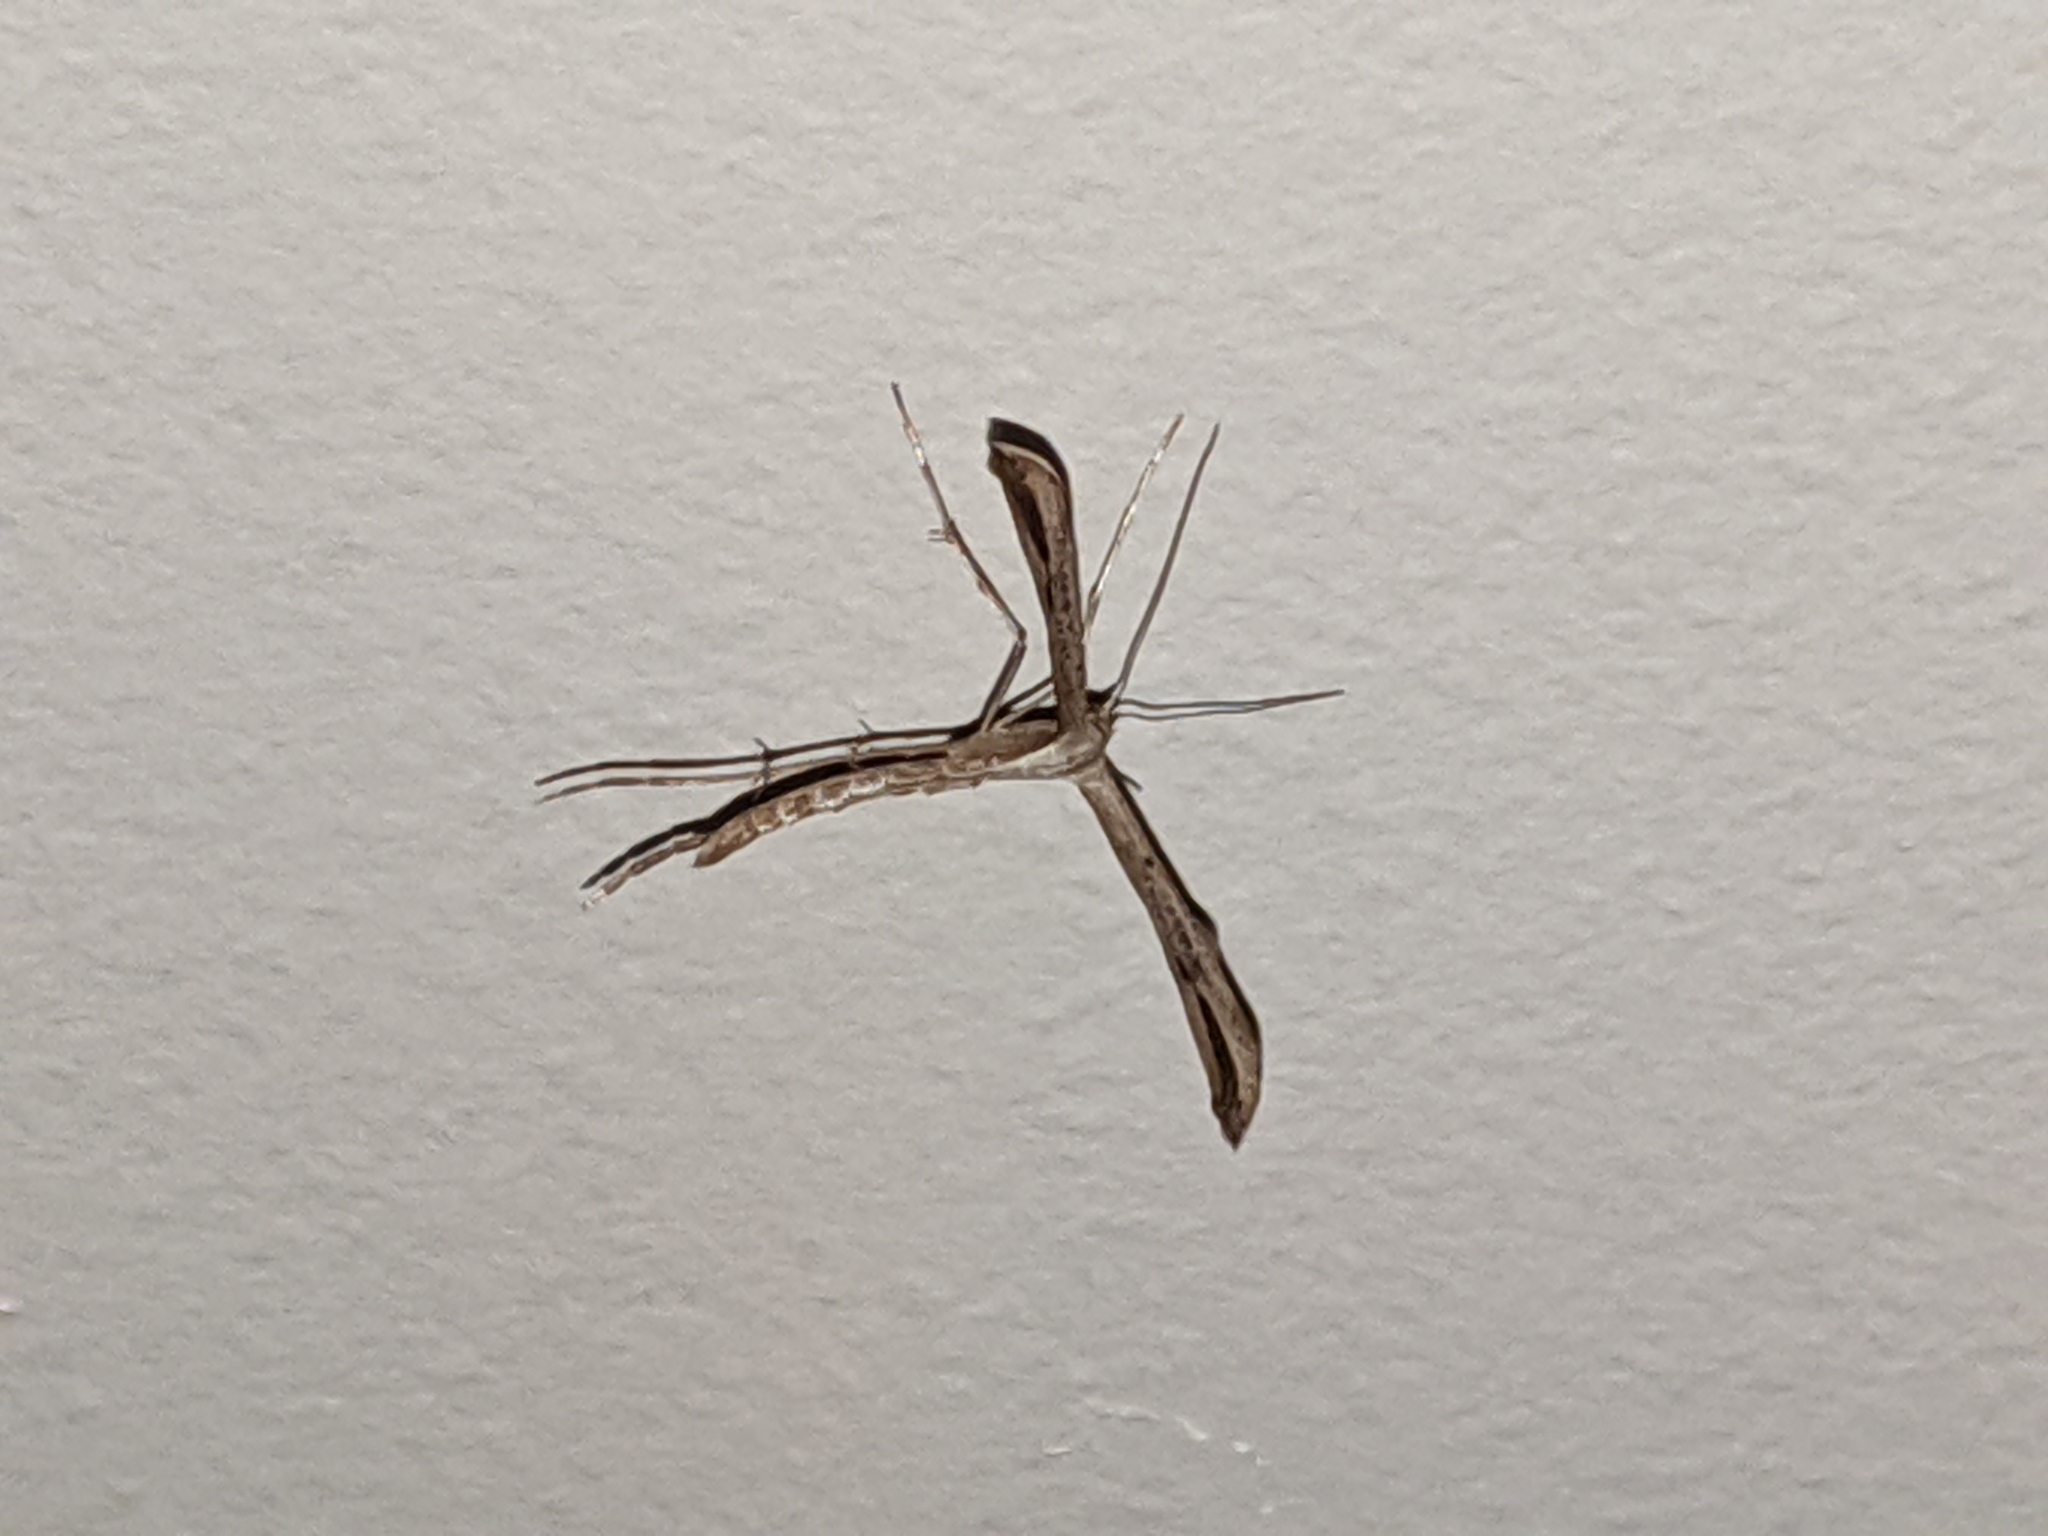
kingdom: Animalia
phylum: Arthropoda
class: Insecta
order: Lepidoptera
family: Pterophoridae
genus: Emmelina
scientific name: Emmelina monodactyla
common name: Common plume
